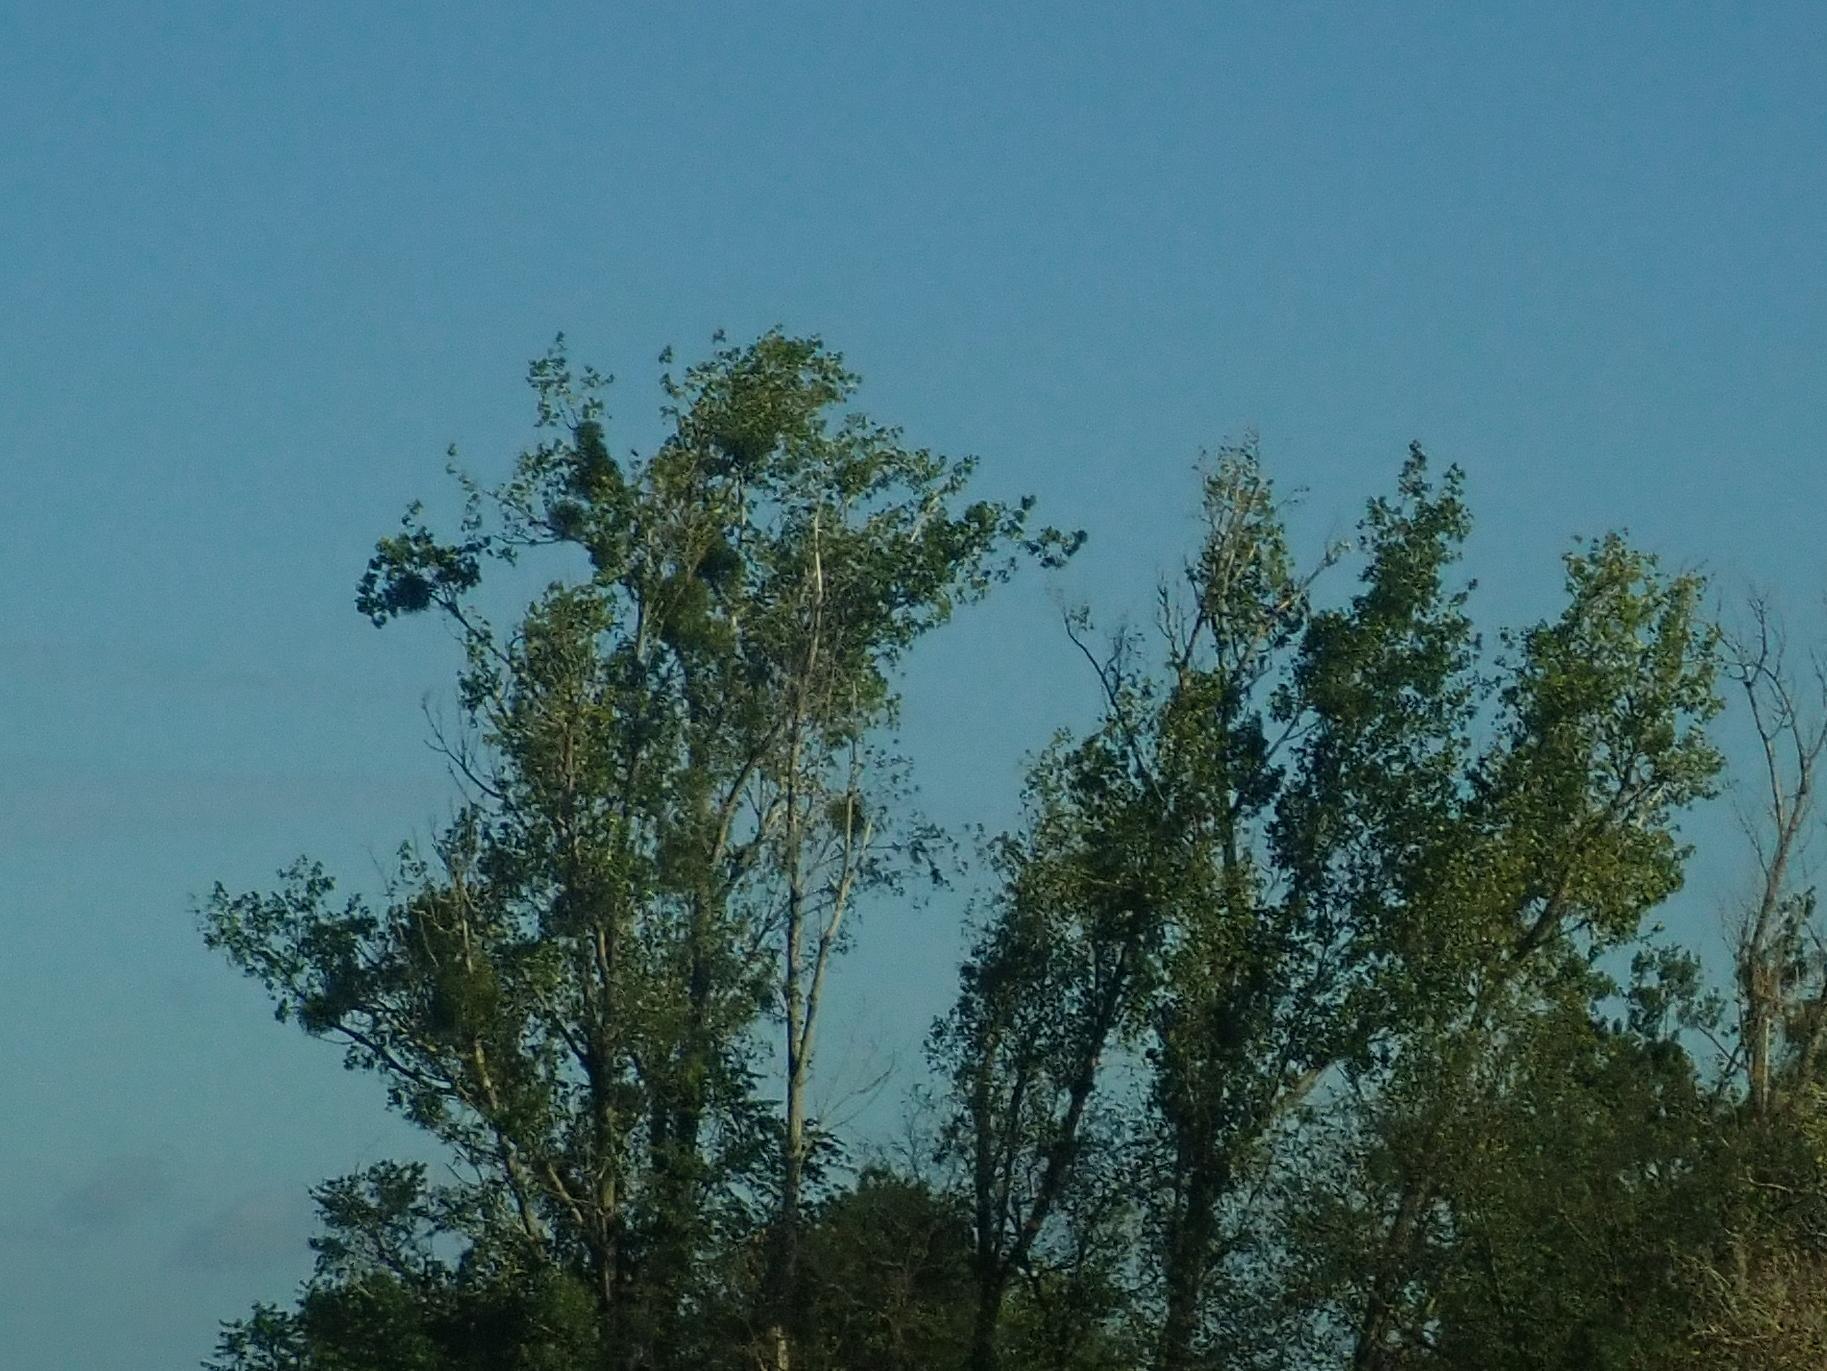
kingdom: Plantae
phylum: Tracheophyta
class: Magnoliopsida
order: Santalales
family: Viscaceae
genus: Viscum
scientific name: Viscum album
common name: Mistletoe
